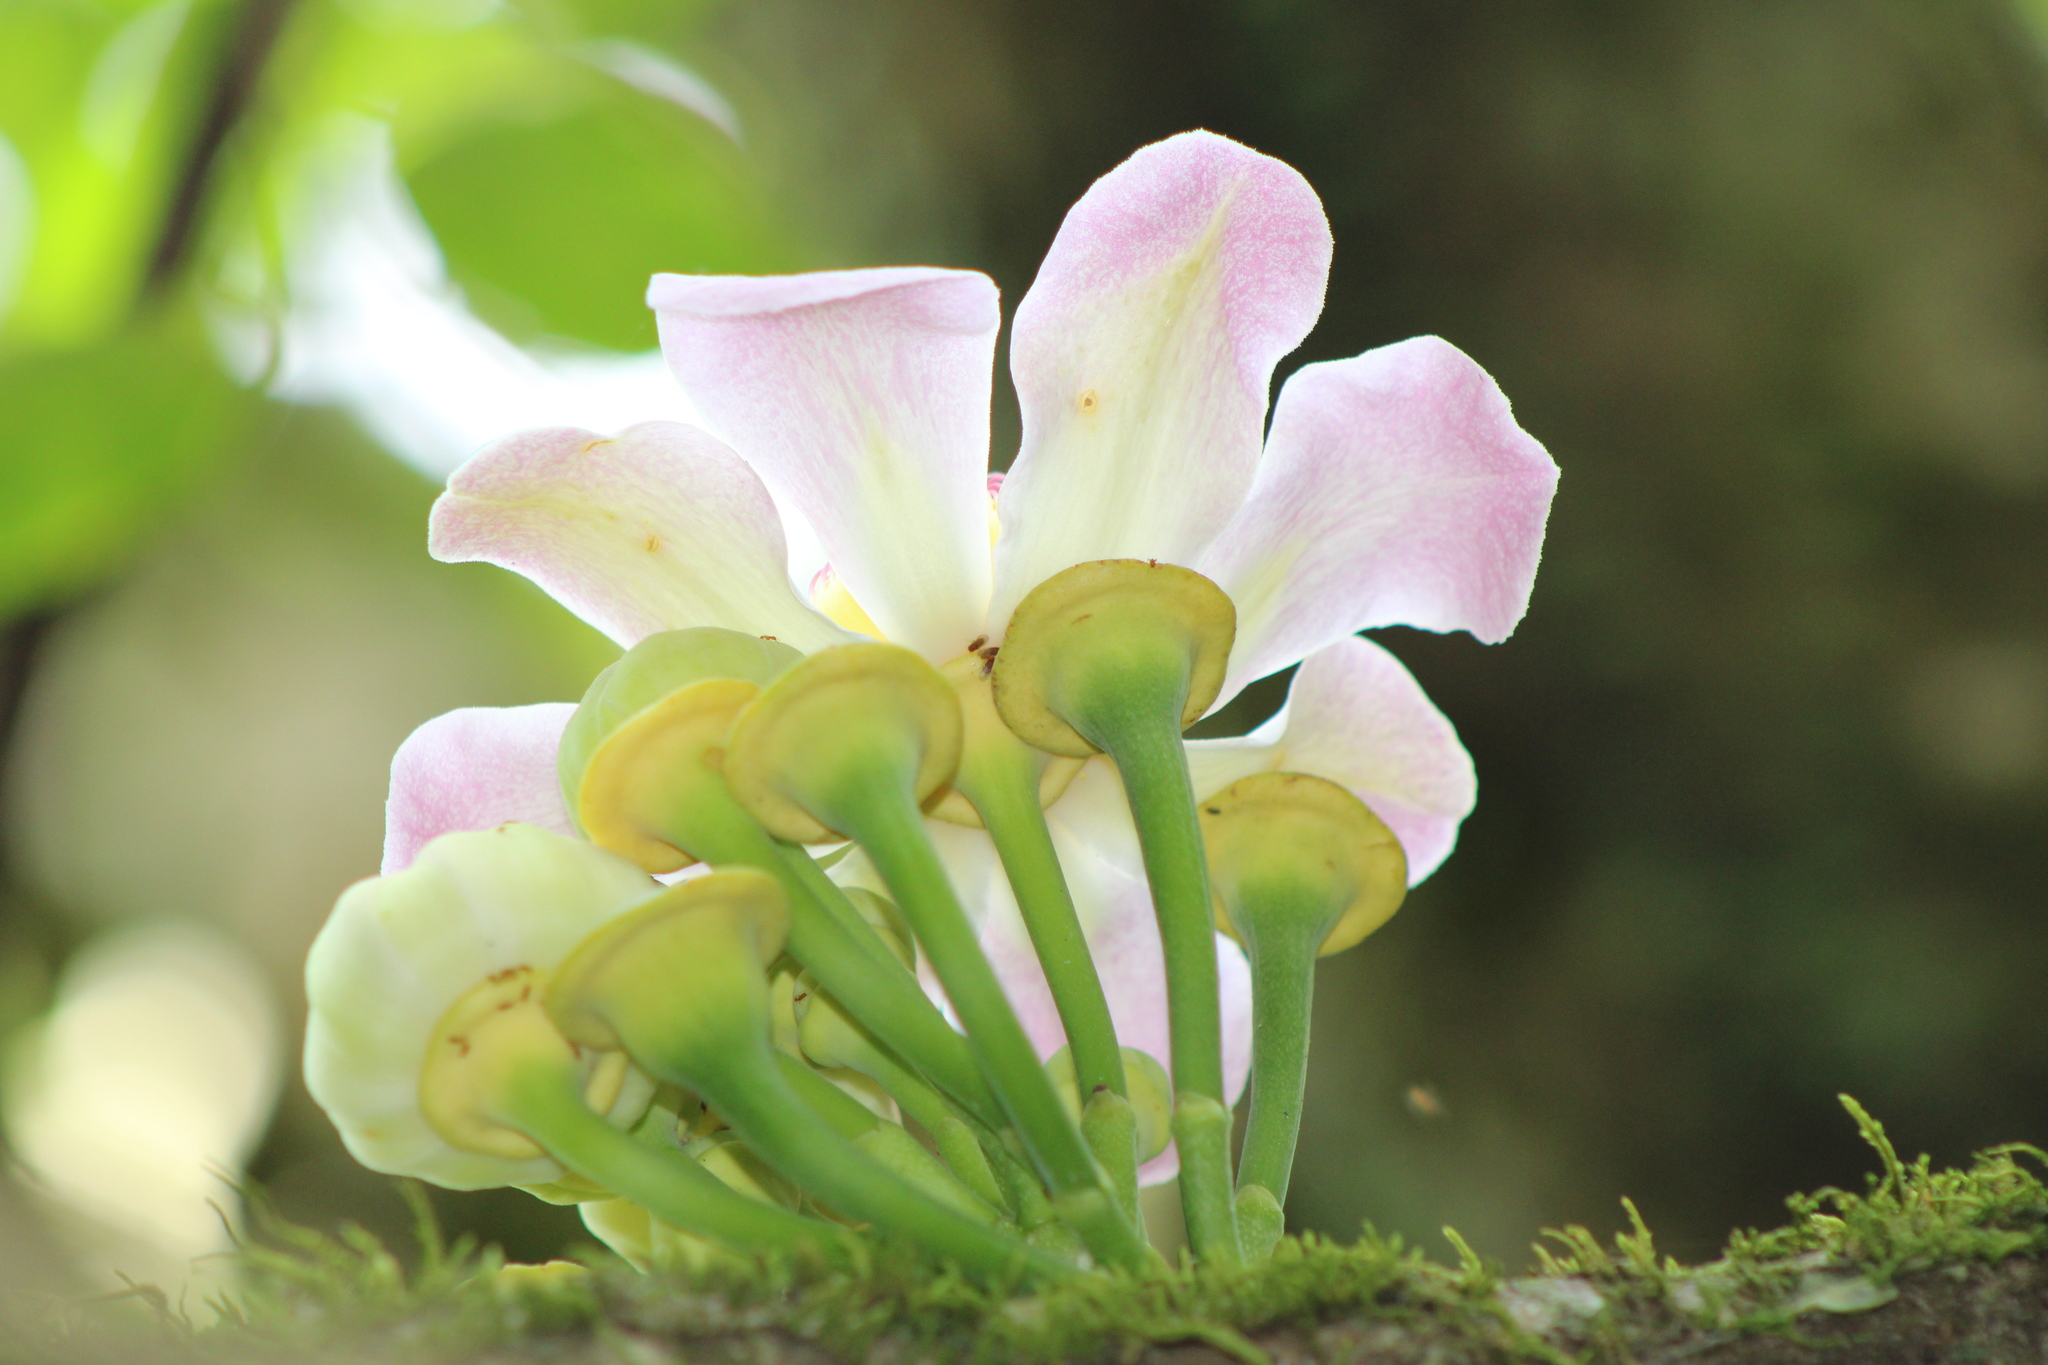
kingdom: Plantae
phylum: Tracheophyta
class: Magnoliopsida
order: Ericales
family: Lecythidaceae
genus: Gustavia
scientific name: Gustavia superba
